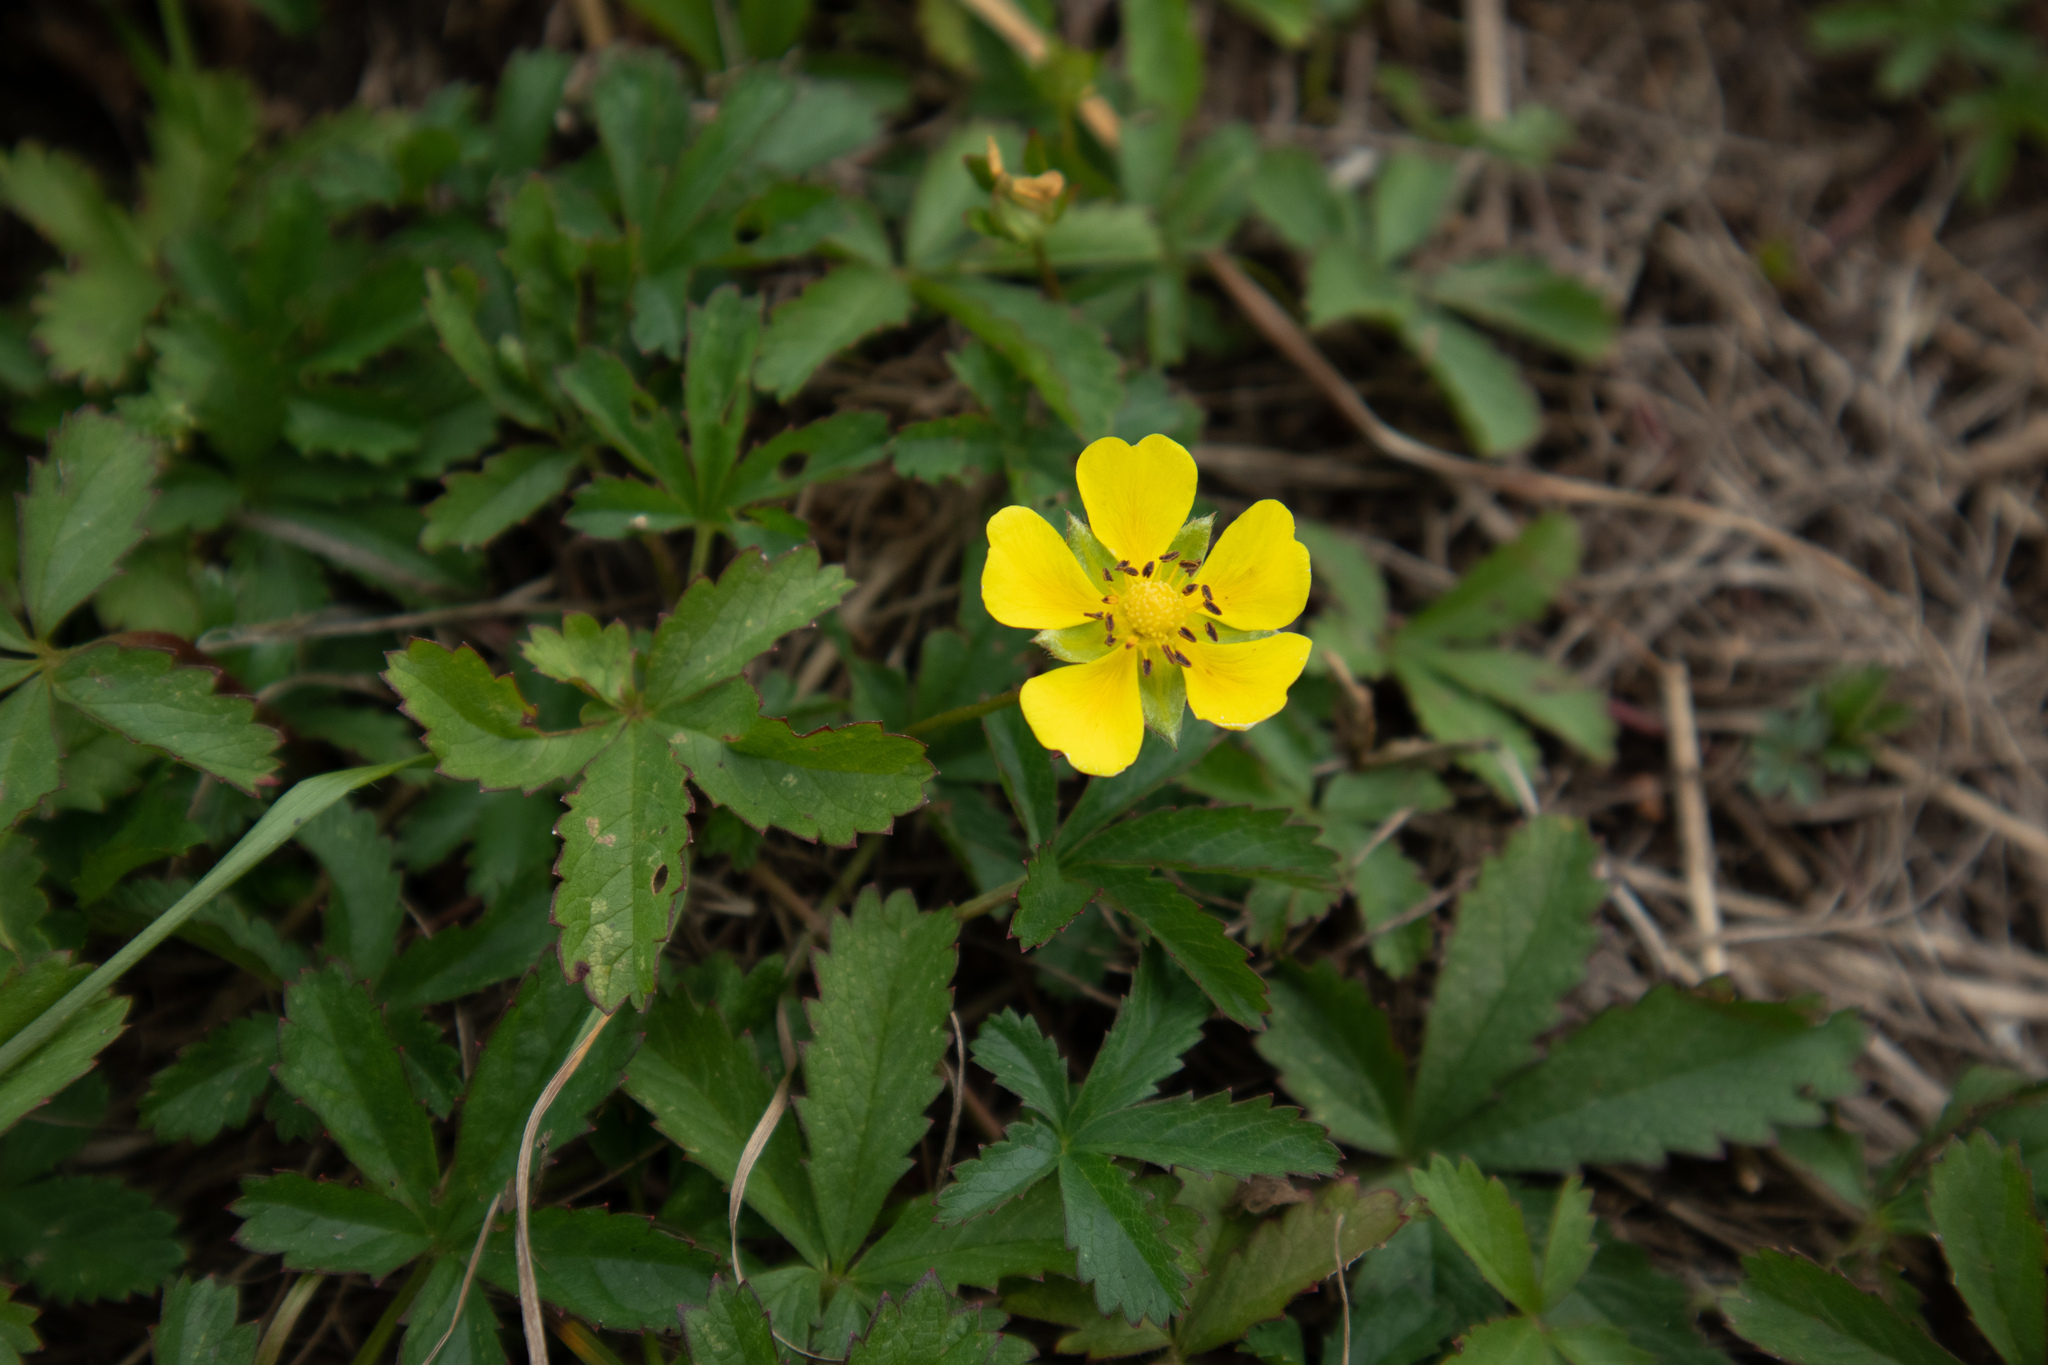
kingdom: Plantae
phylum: Tracheophyta
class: Magnoliopsida
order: Rosales
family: Rosaceae
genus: Potentilla
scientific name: Potentilla reptans
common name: Creeping cinquefoil
